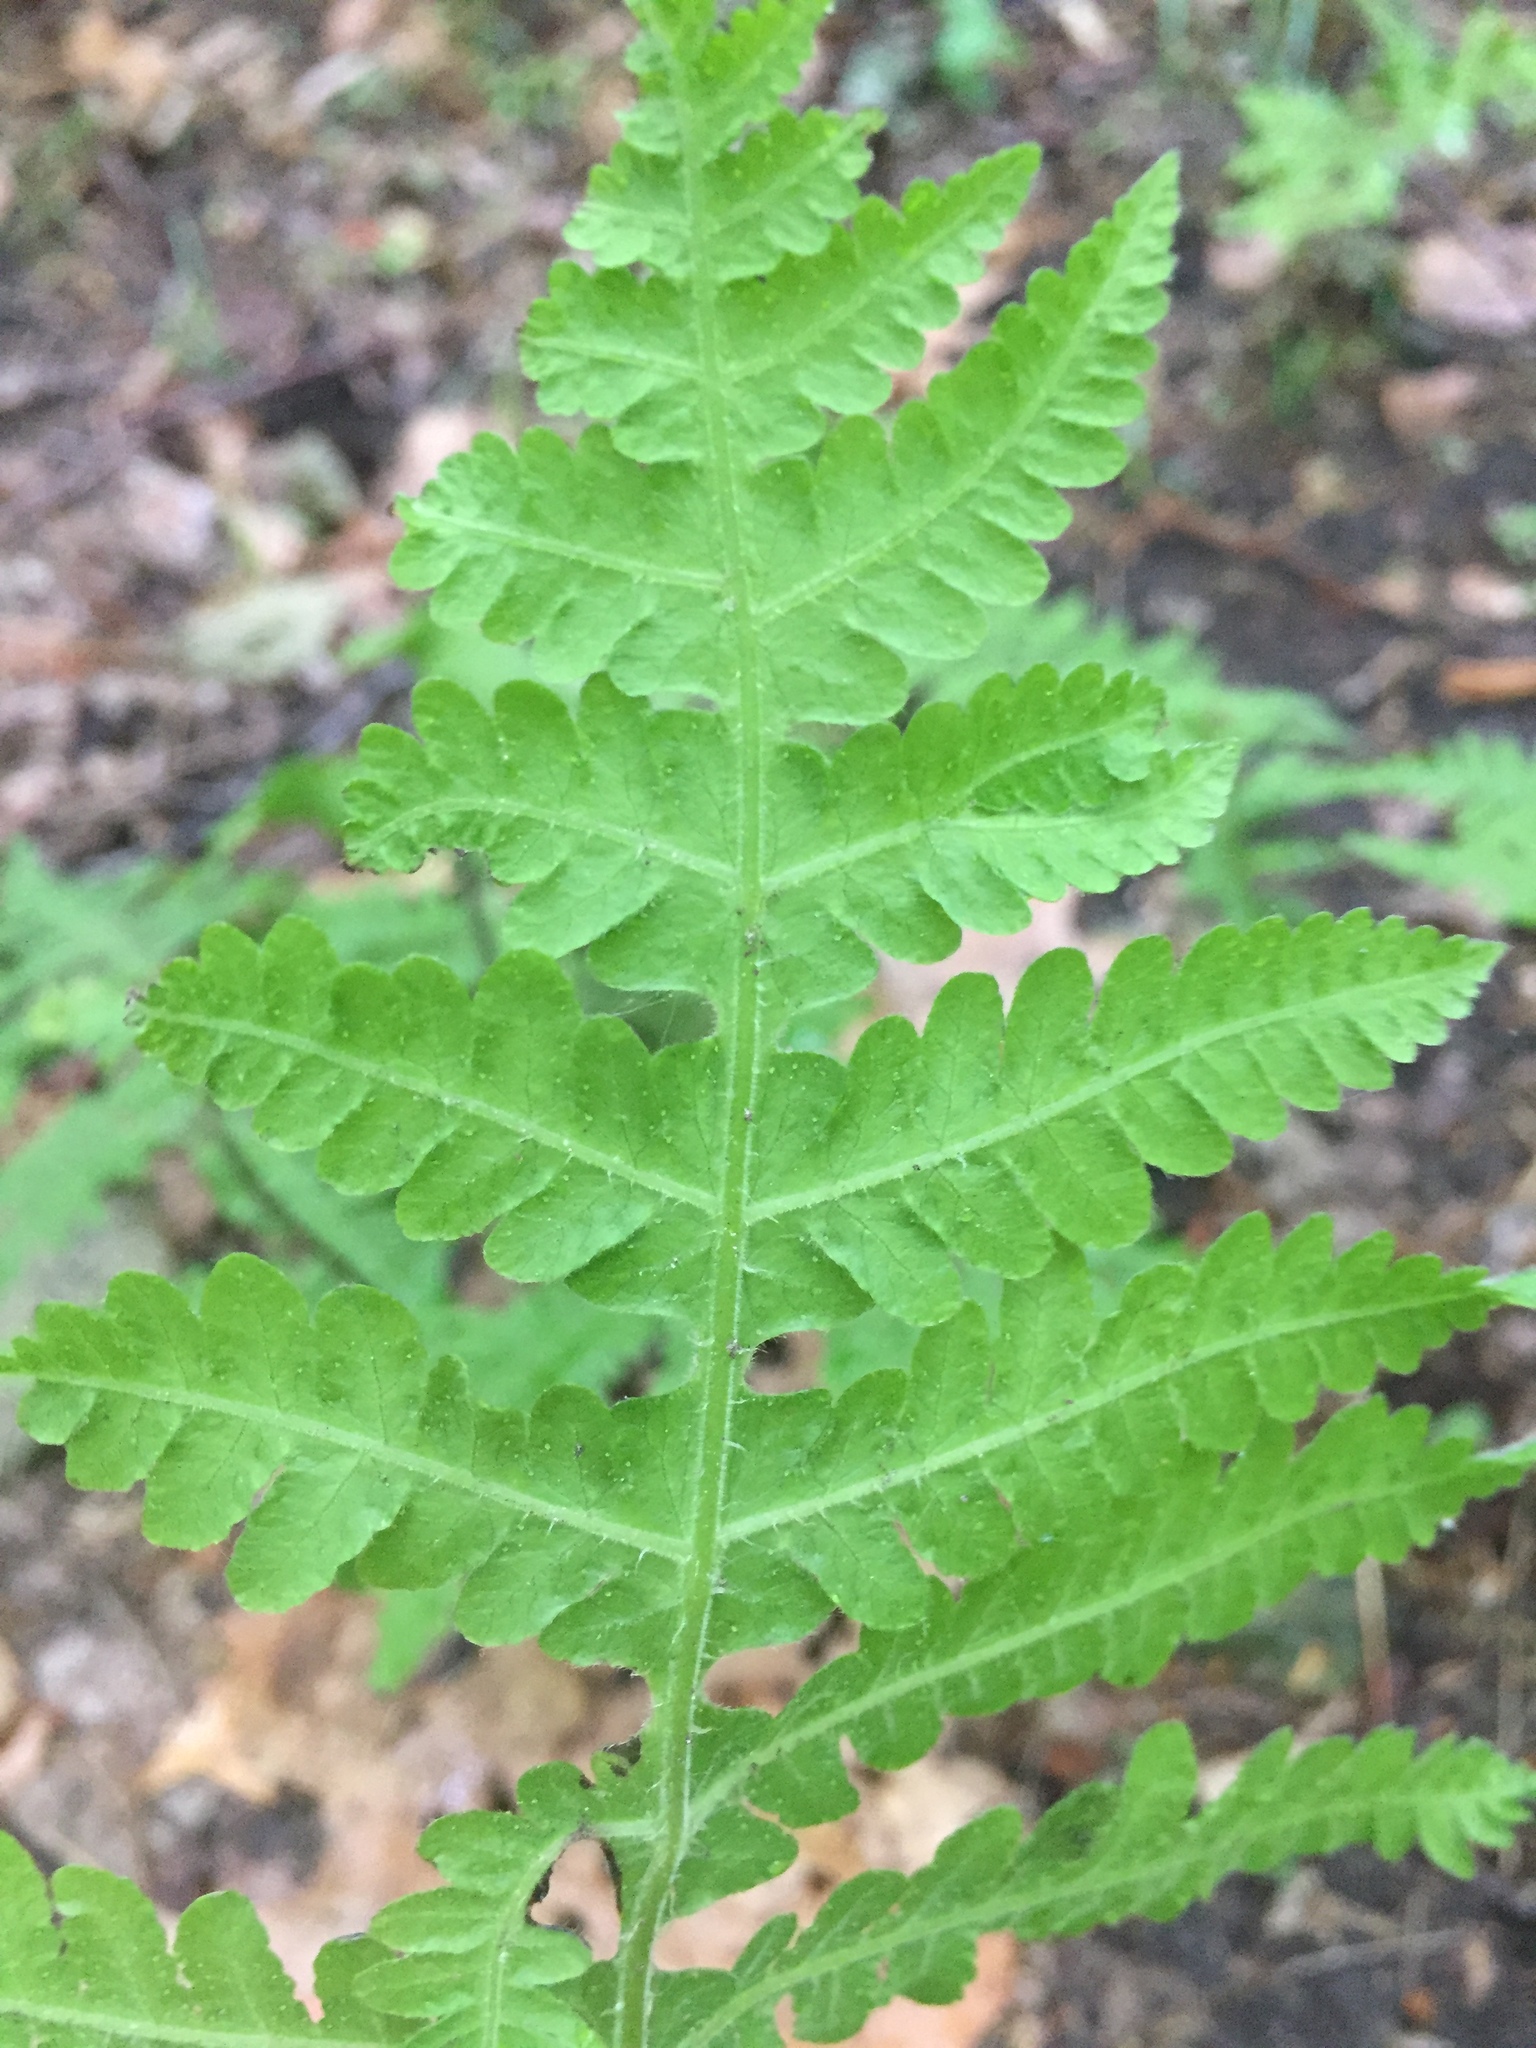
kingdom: Plantae
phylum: Tracheophyta
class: Polypodiopsida
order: Polypodiales
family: Thelypteridaceae
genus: Phegopteris
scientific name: Phegopteris hexagonoptera
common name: Broad beech fern
